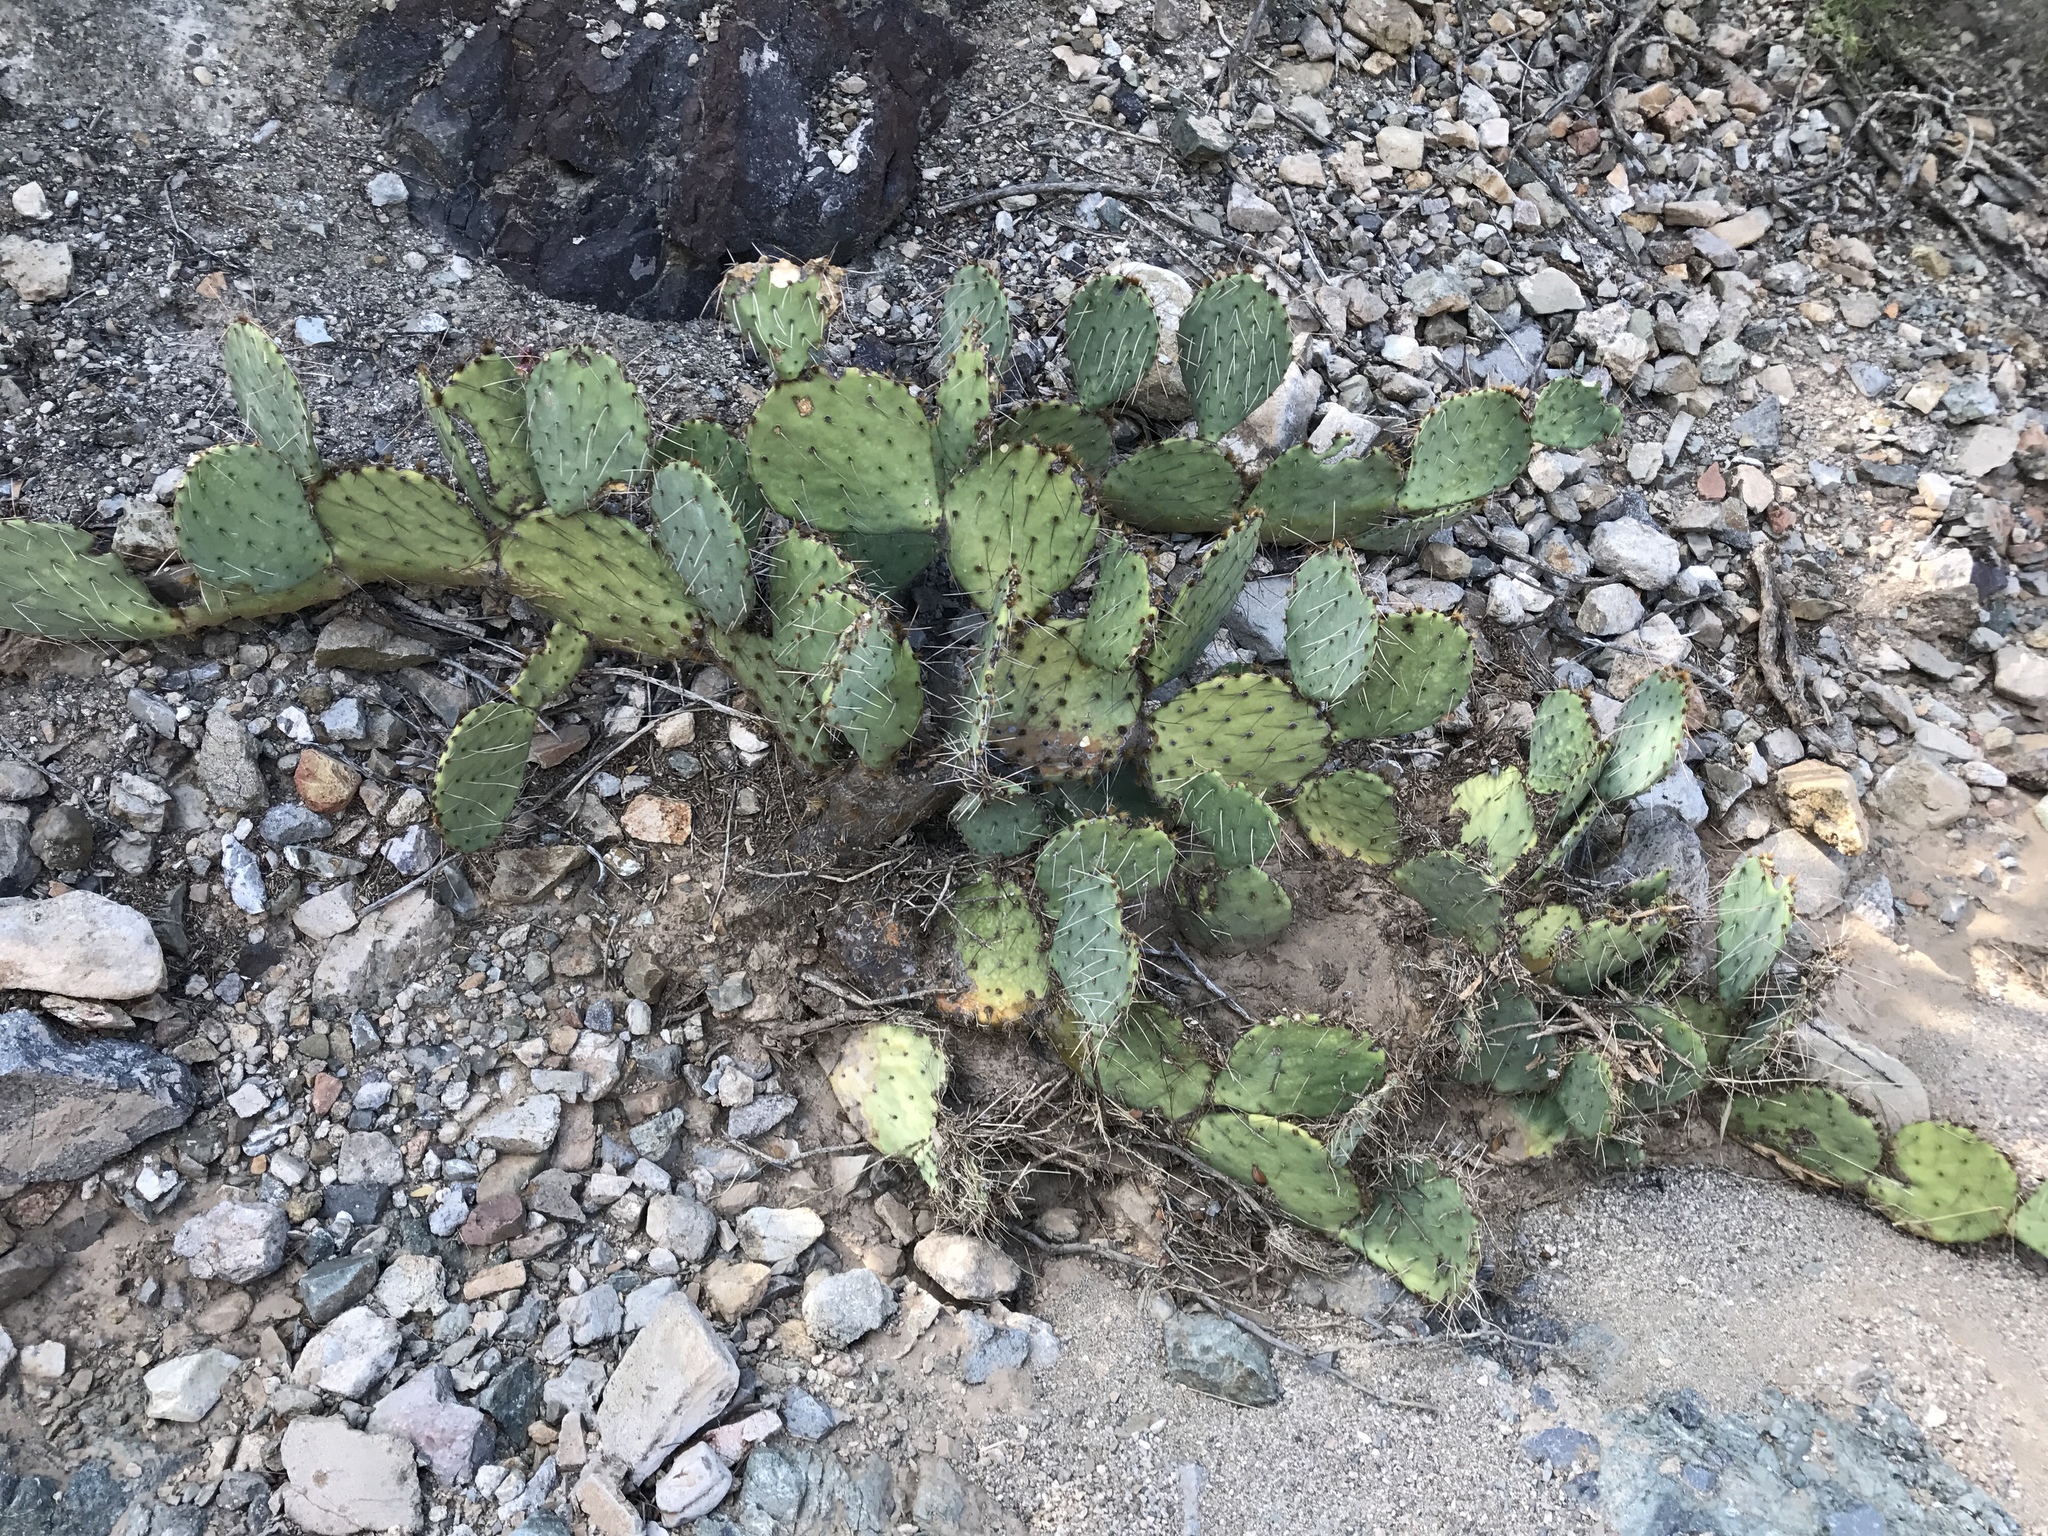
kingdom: Plantae
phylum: Tracheophyta
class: Magnoliopsida
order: Caryophyllales
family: Cactaceae
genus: Opuntia
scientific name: Opuntia phaeacantha
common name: New mexico prickly-pear
